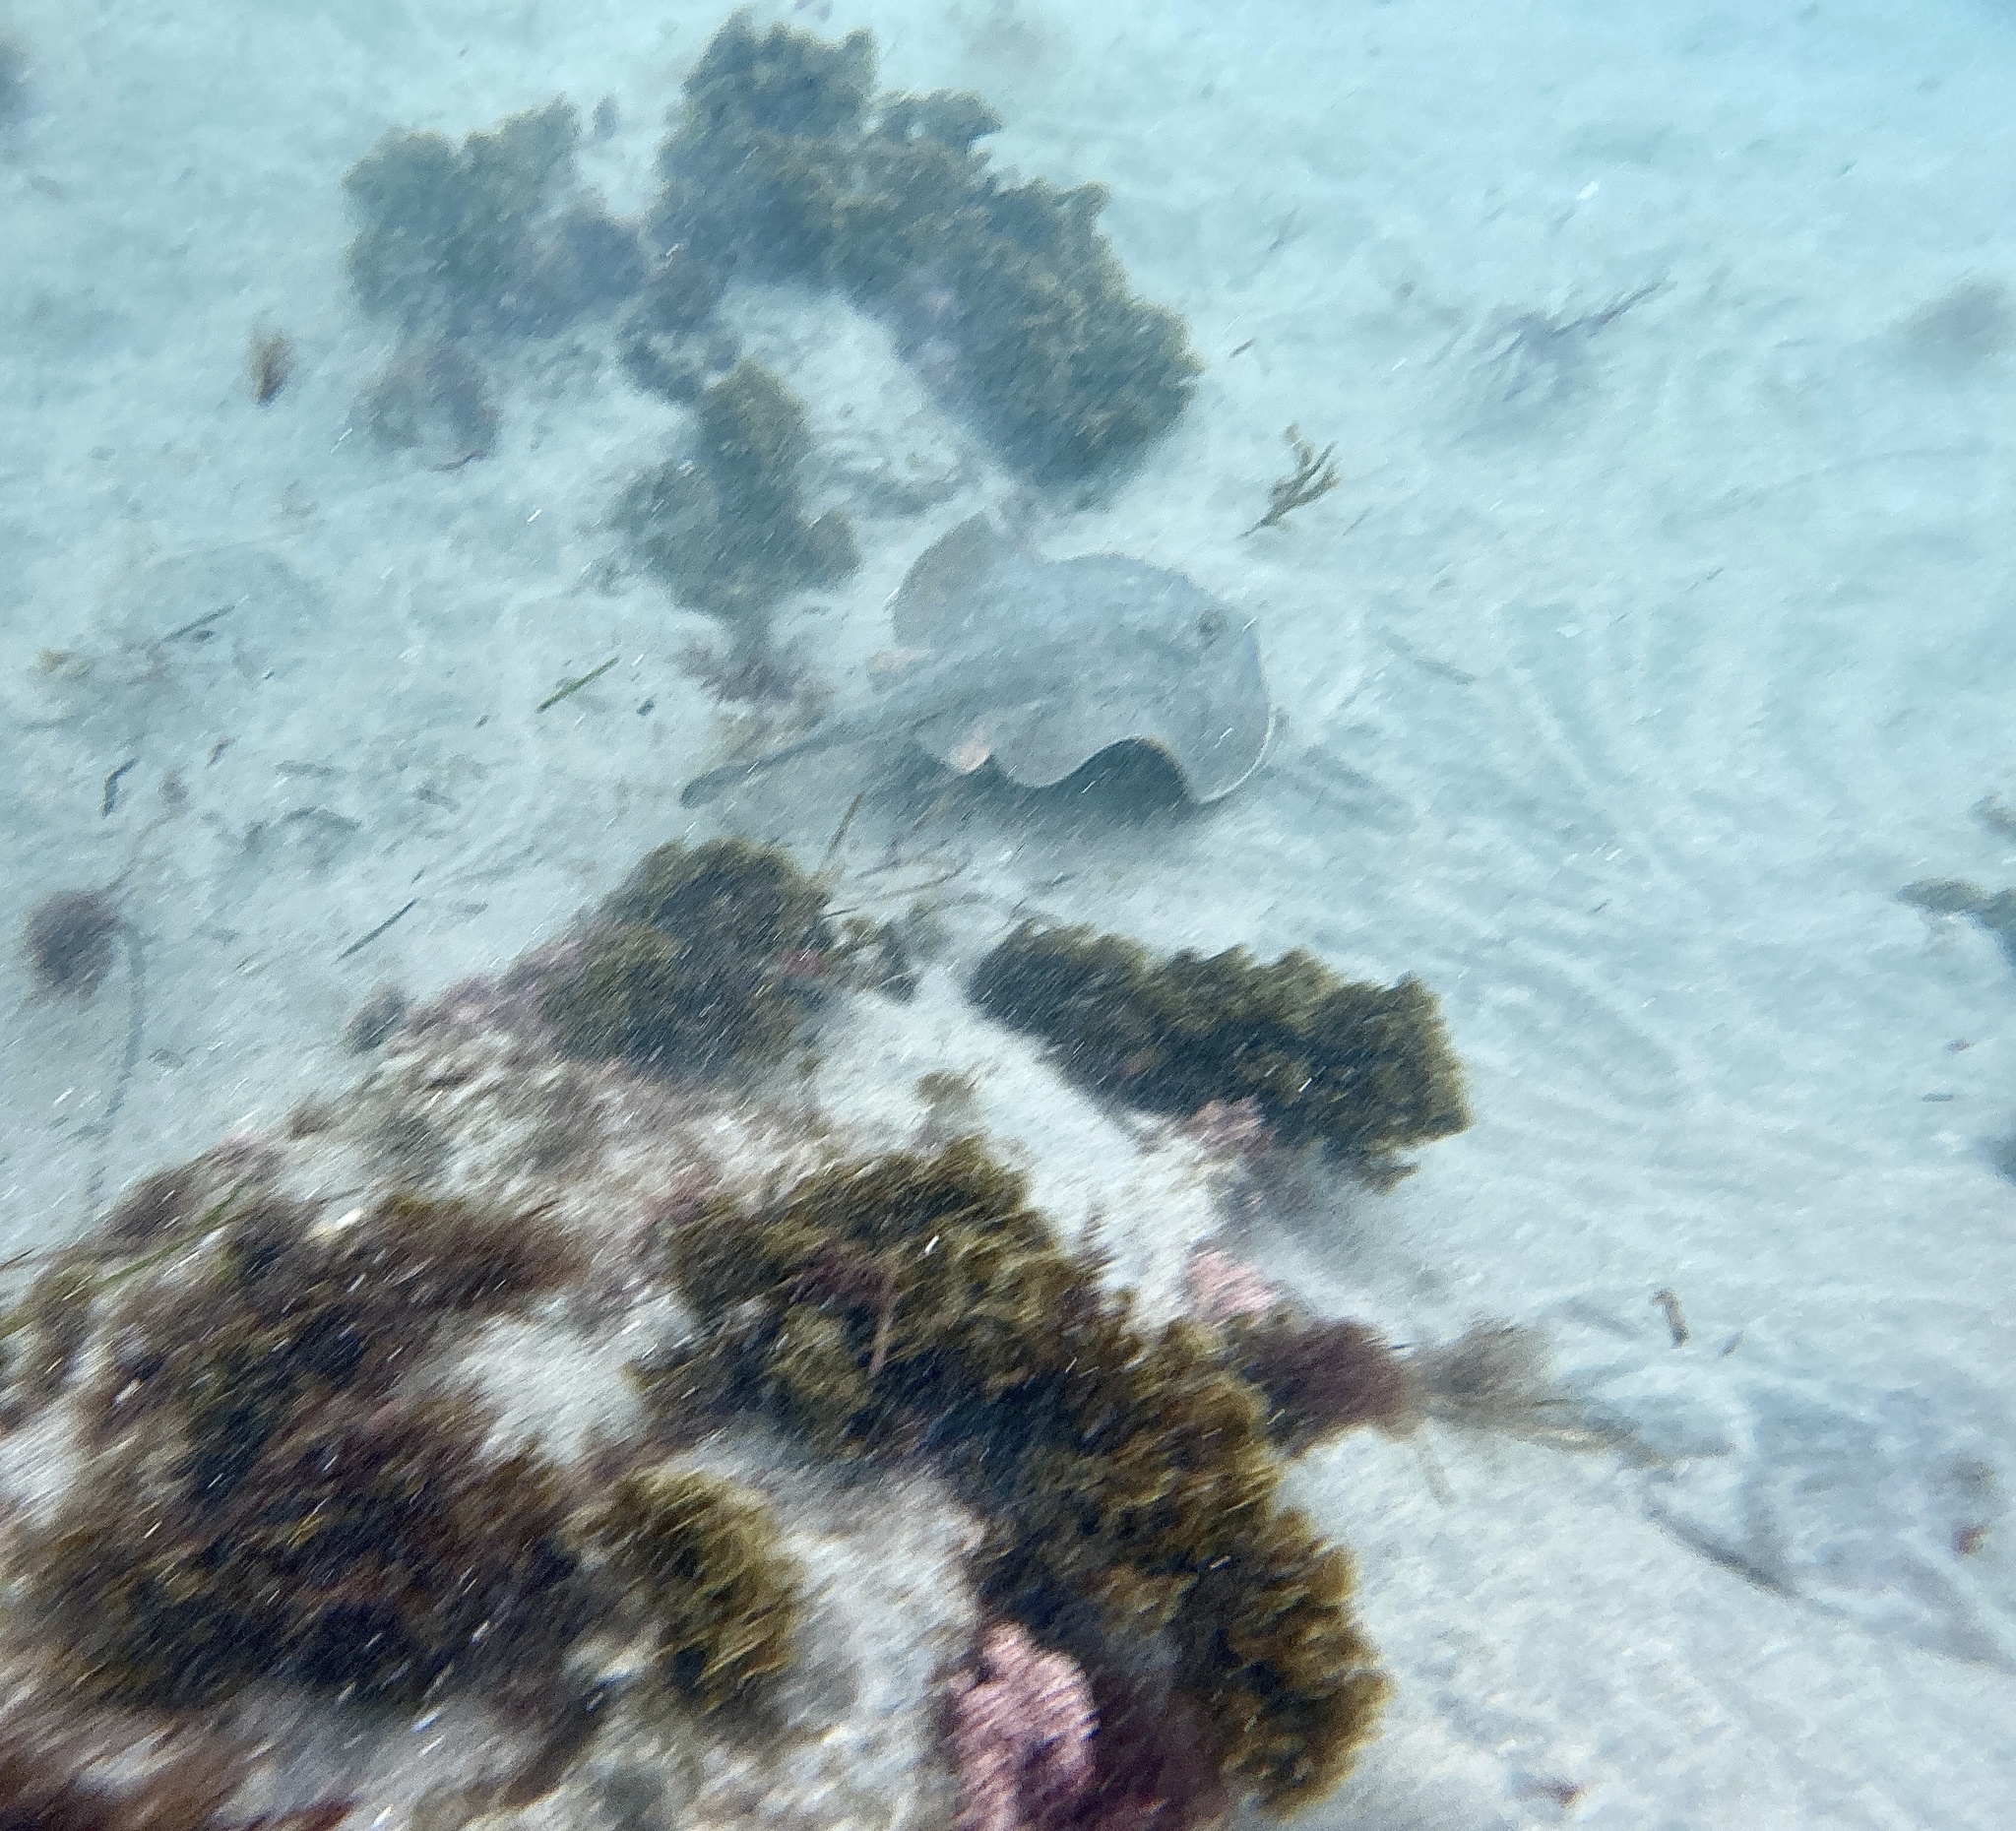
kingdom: Animalia
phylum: Chordata
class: Elasmobranchii
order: Myliobatiformes
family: Urolophidae
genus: Urolophus
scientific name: Urolophus halleri
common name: Round stingray
